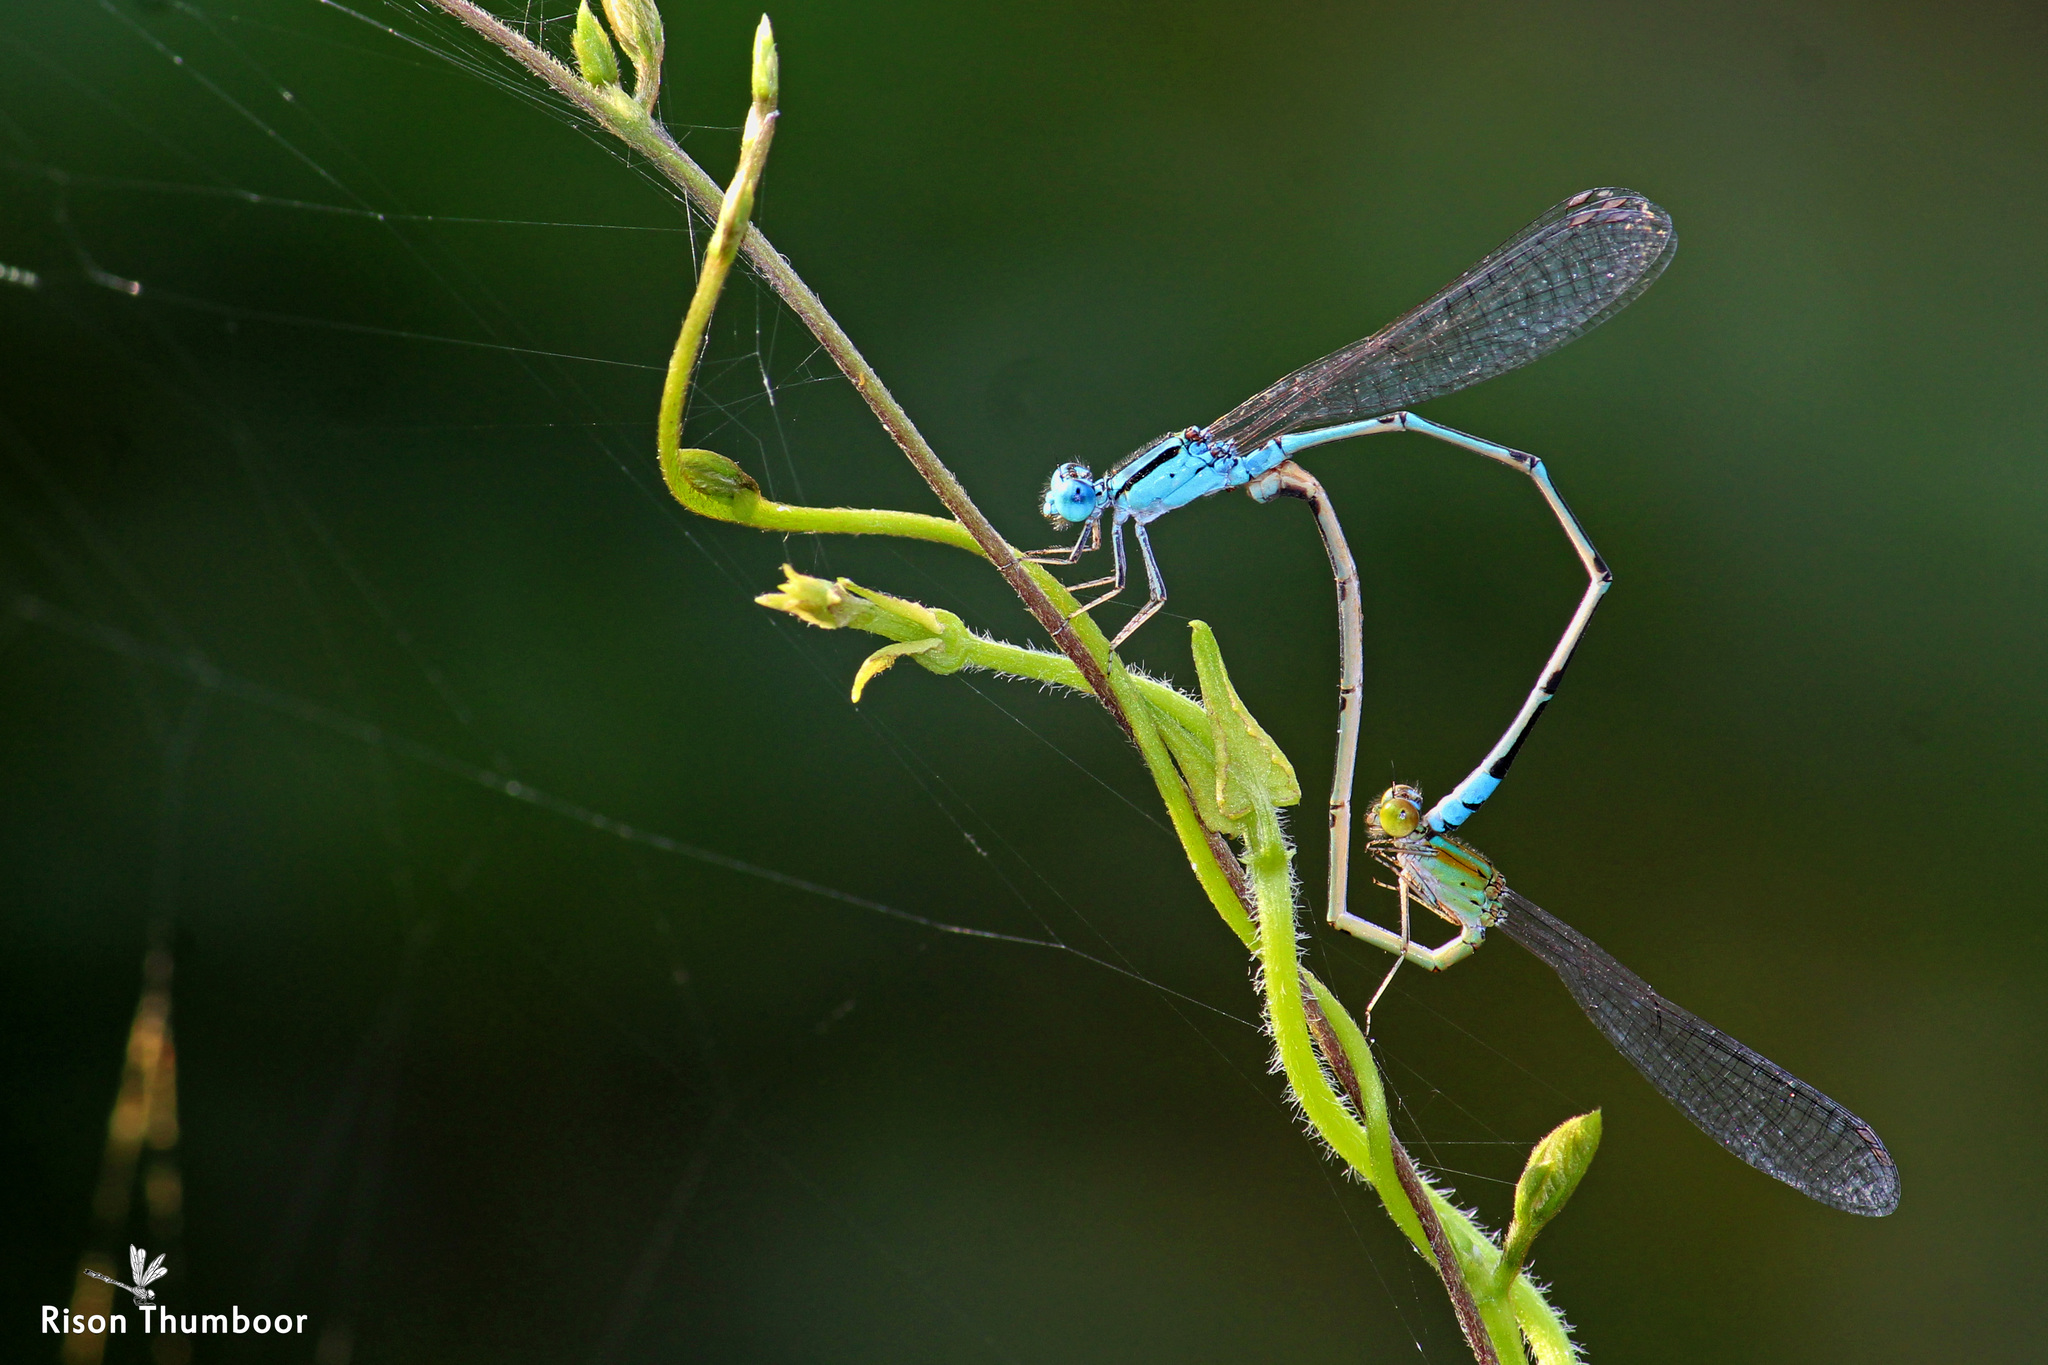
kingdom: Animalia
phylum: Arthropoda
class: Insecta
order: Odonata
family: Coenagrionidae
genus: Pseudagrion
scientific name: Pseudagrion microcephalum
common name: Blue riverdamsel
